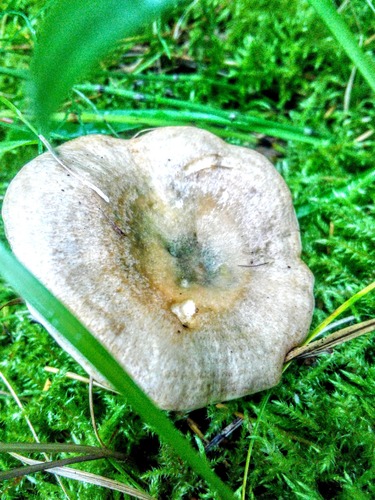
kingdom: Fungi
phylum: Basidiomycota
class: Agaricomycetes
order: Russulales
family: Russulaceae
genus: Lactarius
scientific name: Lactarius deliciosus
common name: Saffron milk-cap
